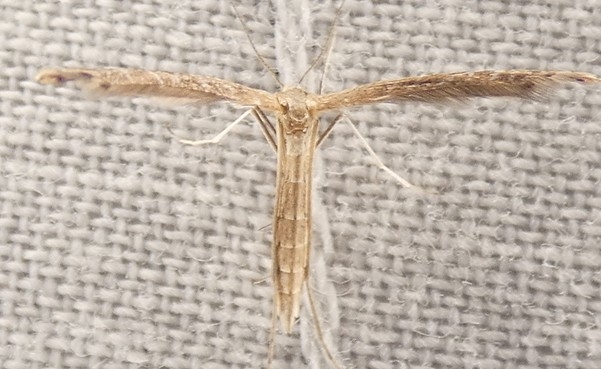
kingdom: Animalia
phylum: Arthropoda
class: Insecta
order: Lepidoptera
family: Pterophoridae
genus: Lioptilodes
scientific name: Lioptilodes albistriolatus
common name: Moth
